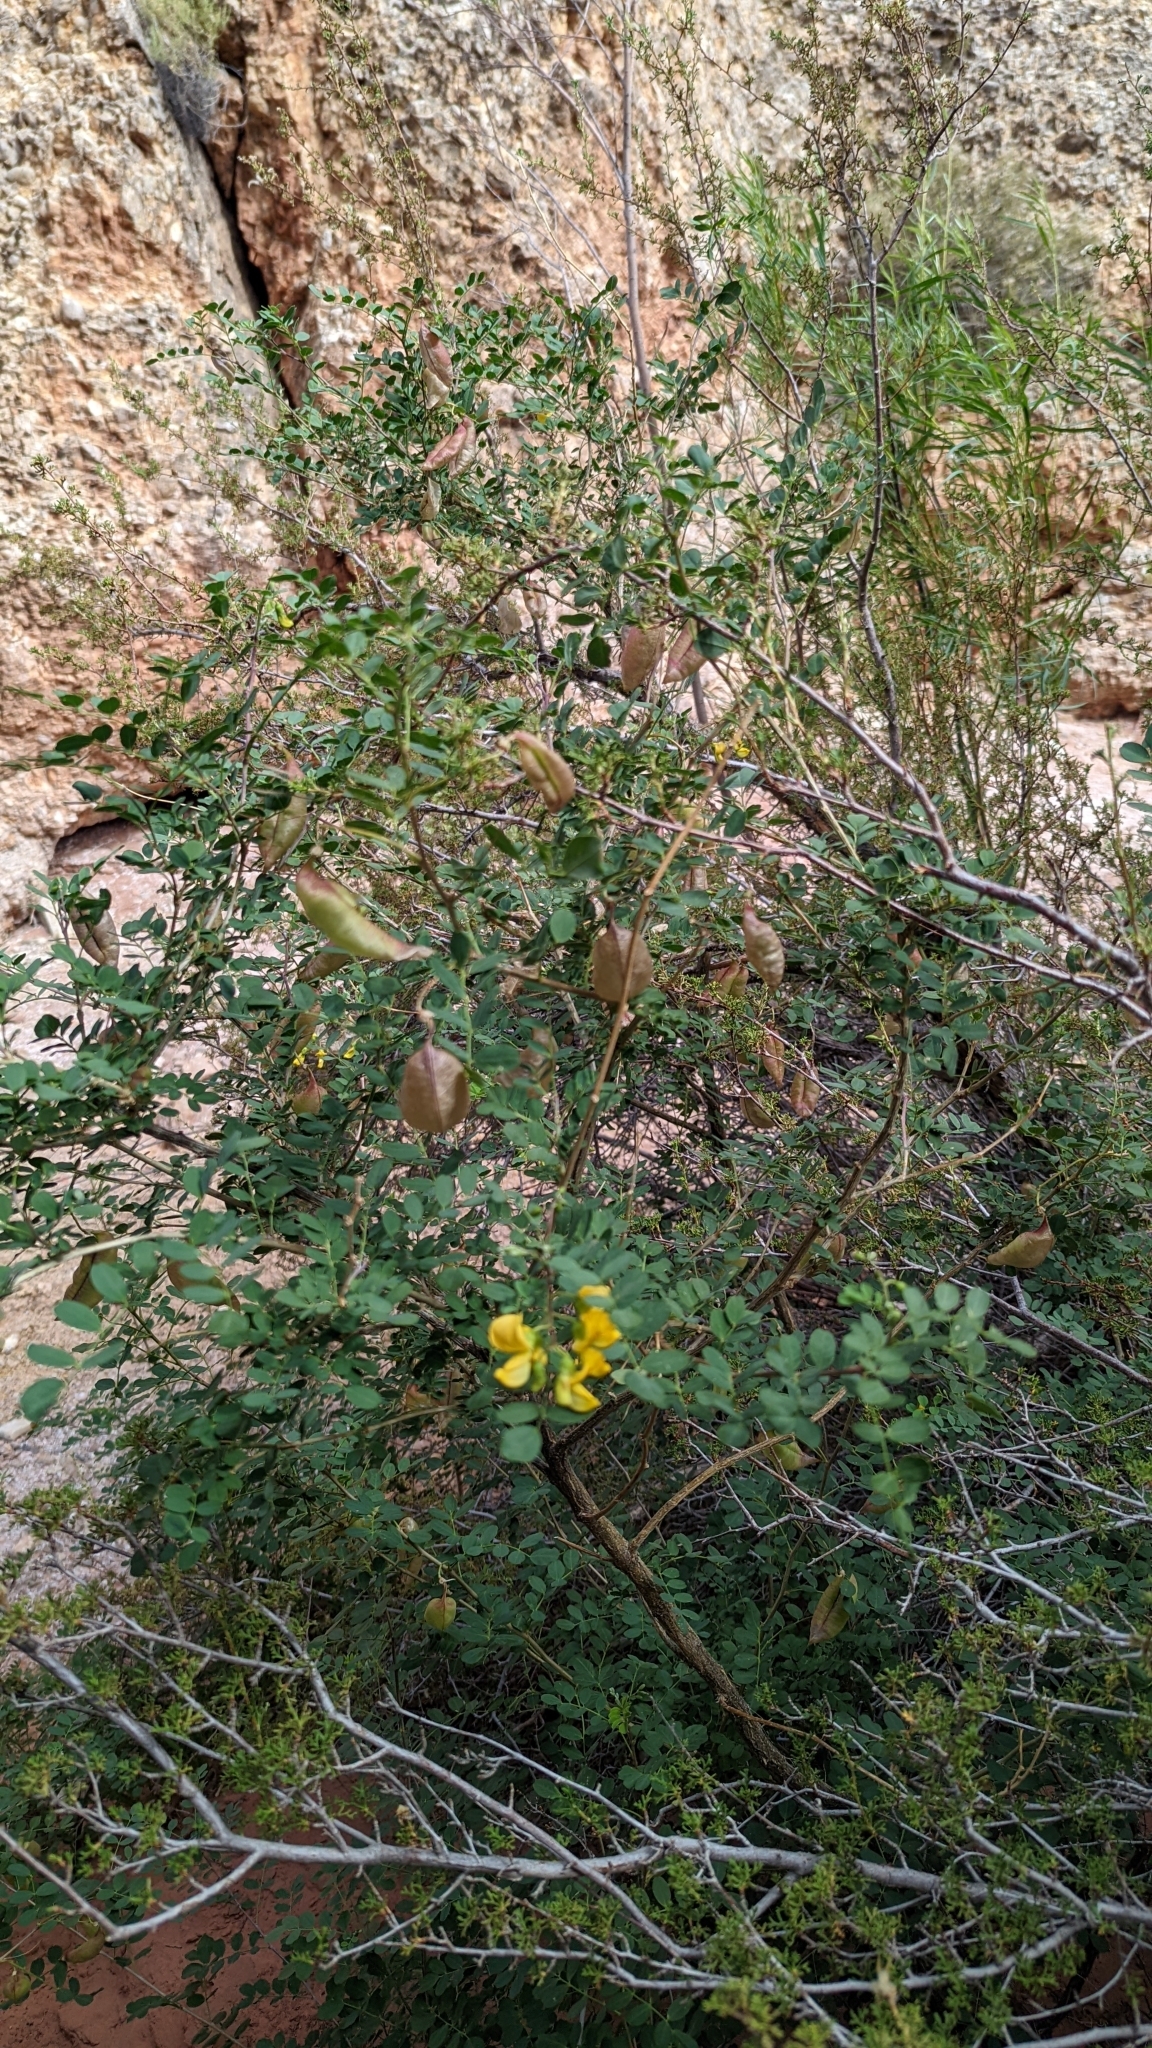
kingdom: Plantae
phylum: Tracheophyta
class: Magnoliopsida
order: Fabales
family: Fabaceae
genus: Colutea
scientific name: Colutea arborescens
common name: Bladder-senna
